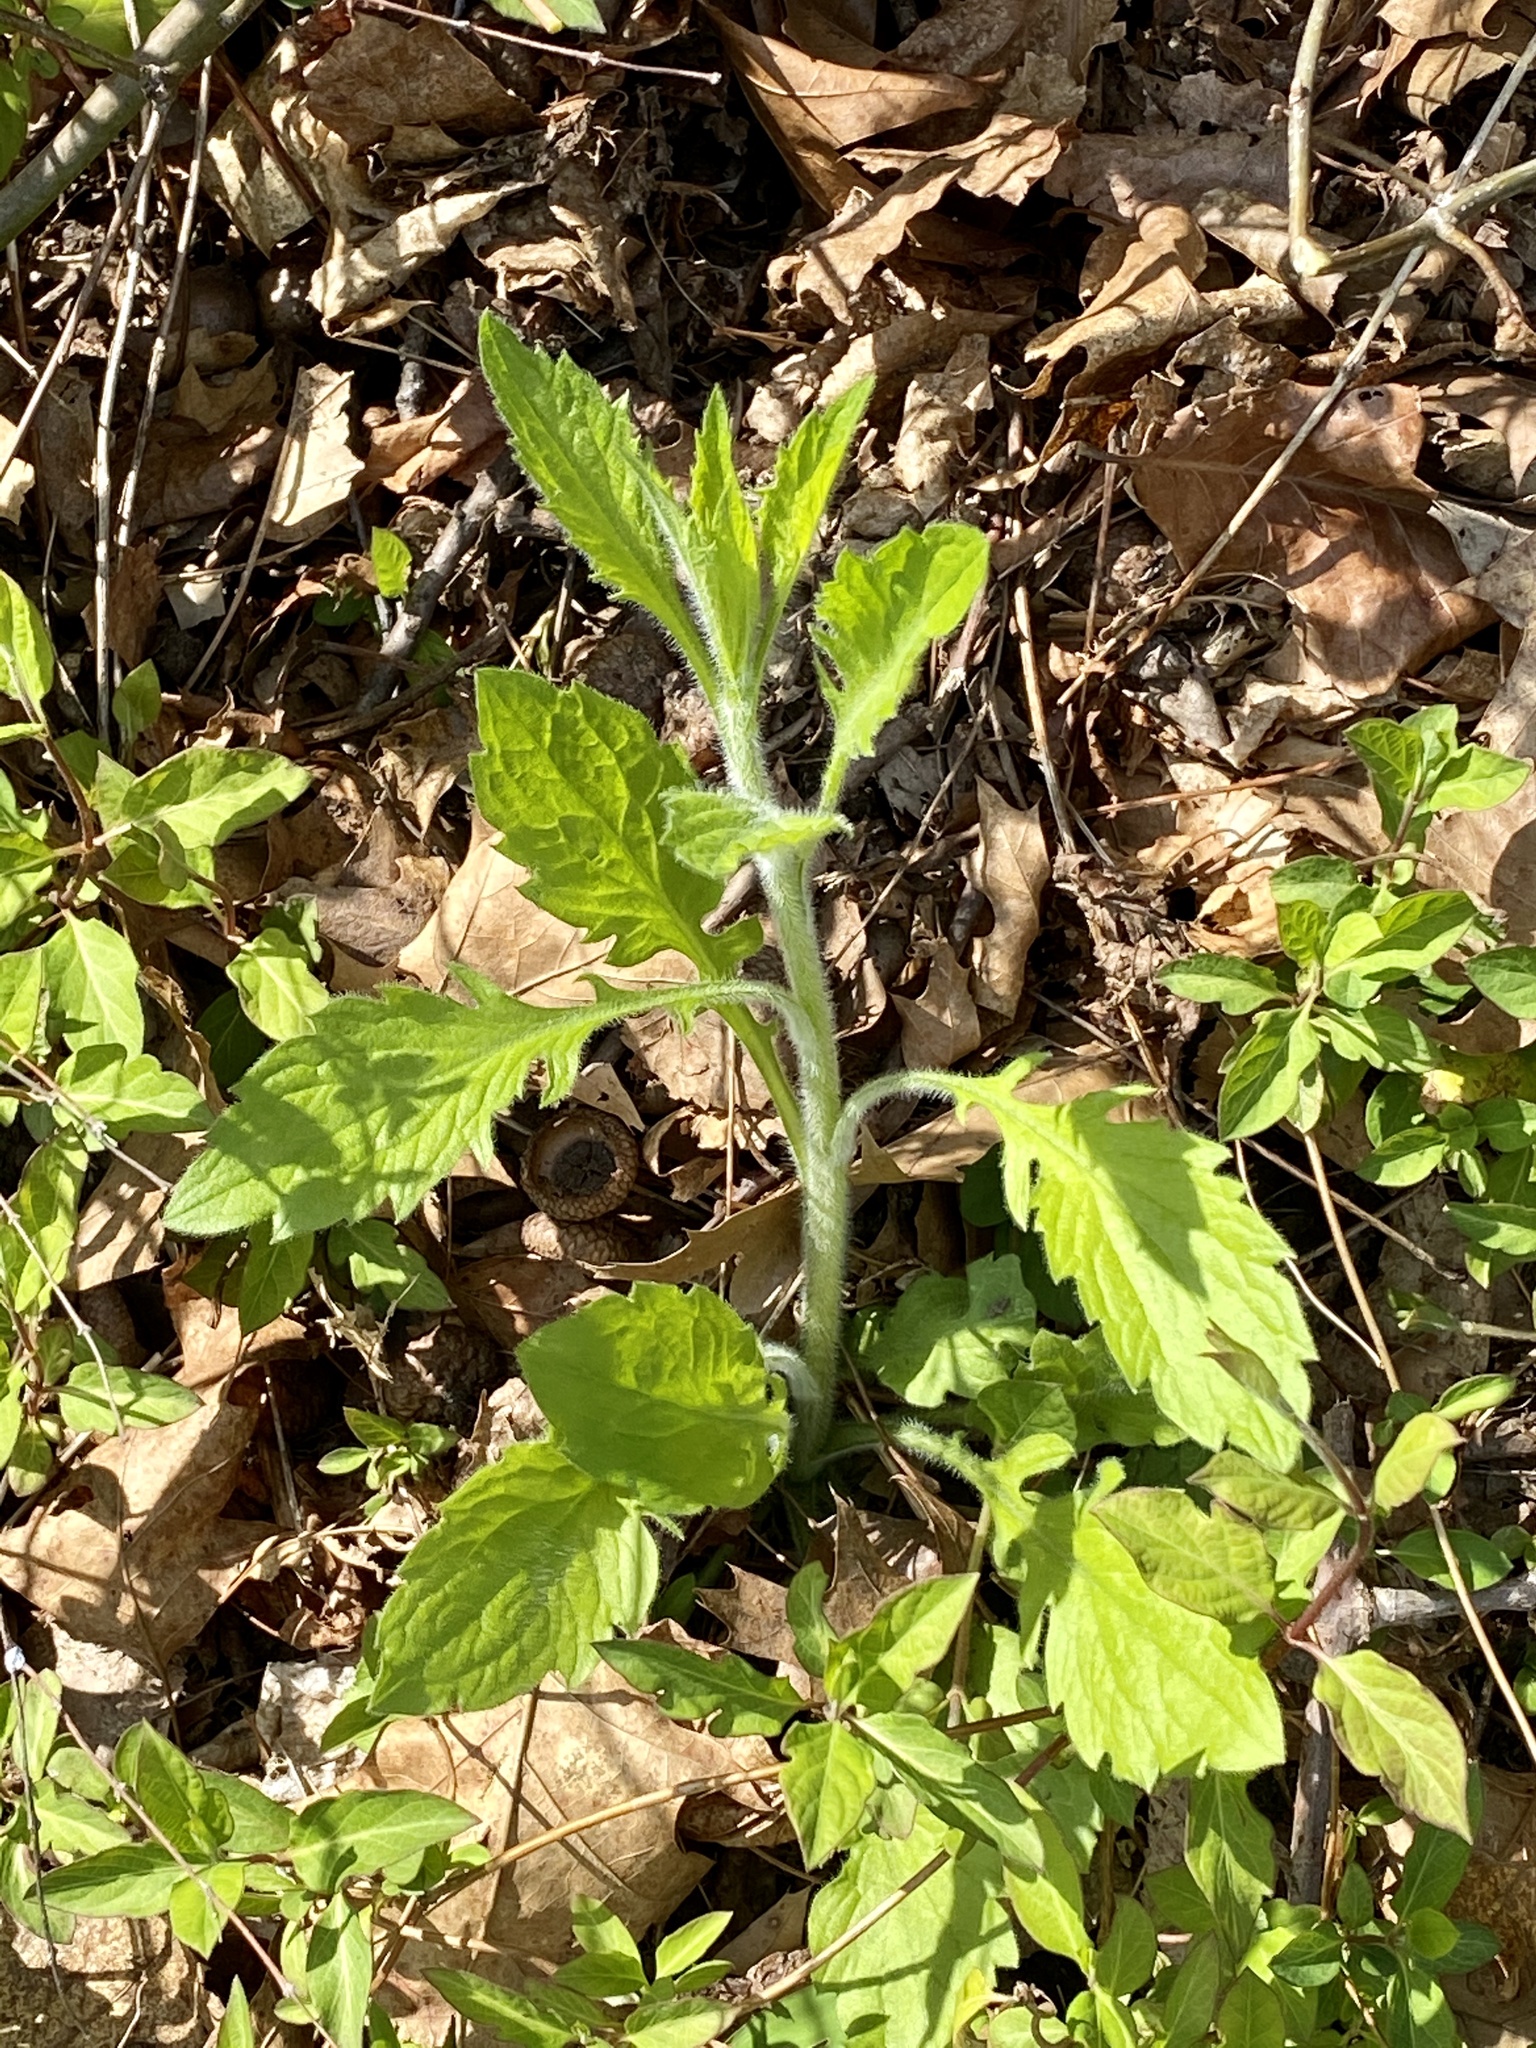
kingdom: Plantae
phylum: Tracheophyta
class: Magnoliopsida
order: Asterales
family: Asteraceae
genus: Erigeron
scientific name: Erigeron annuus
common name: Tall fleabane
